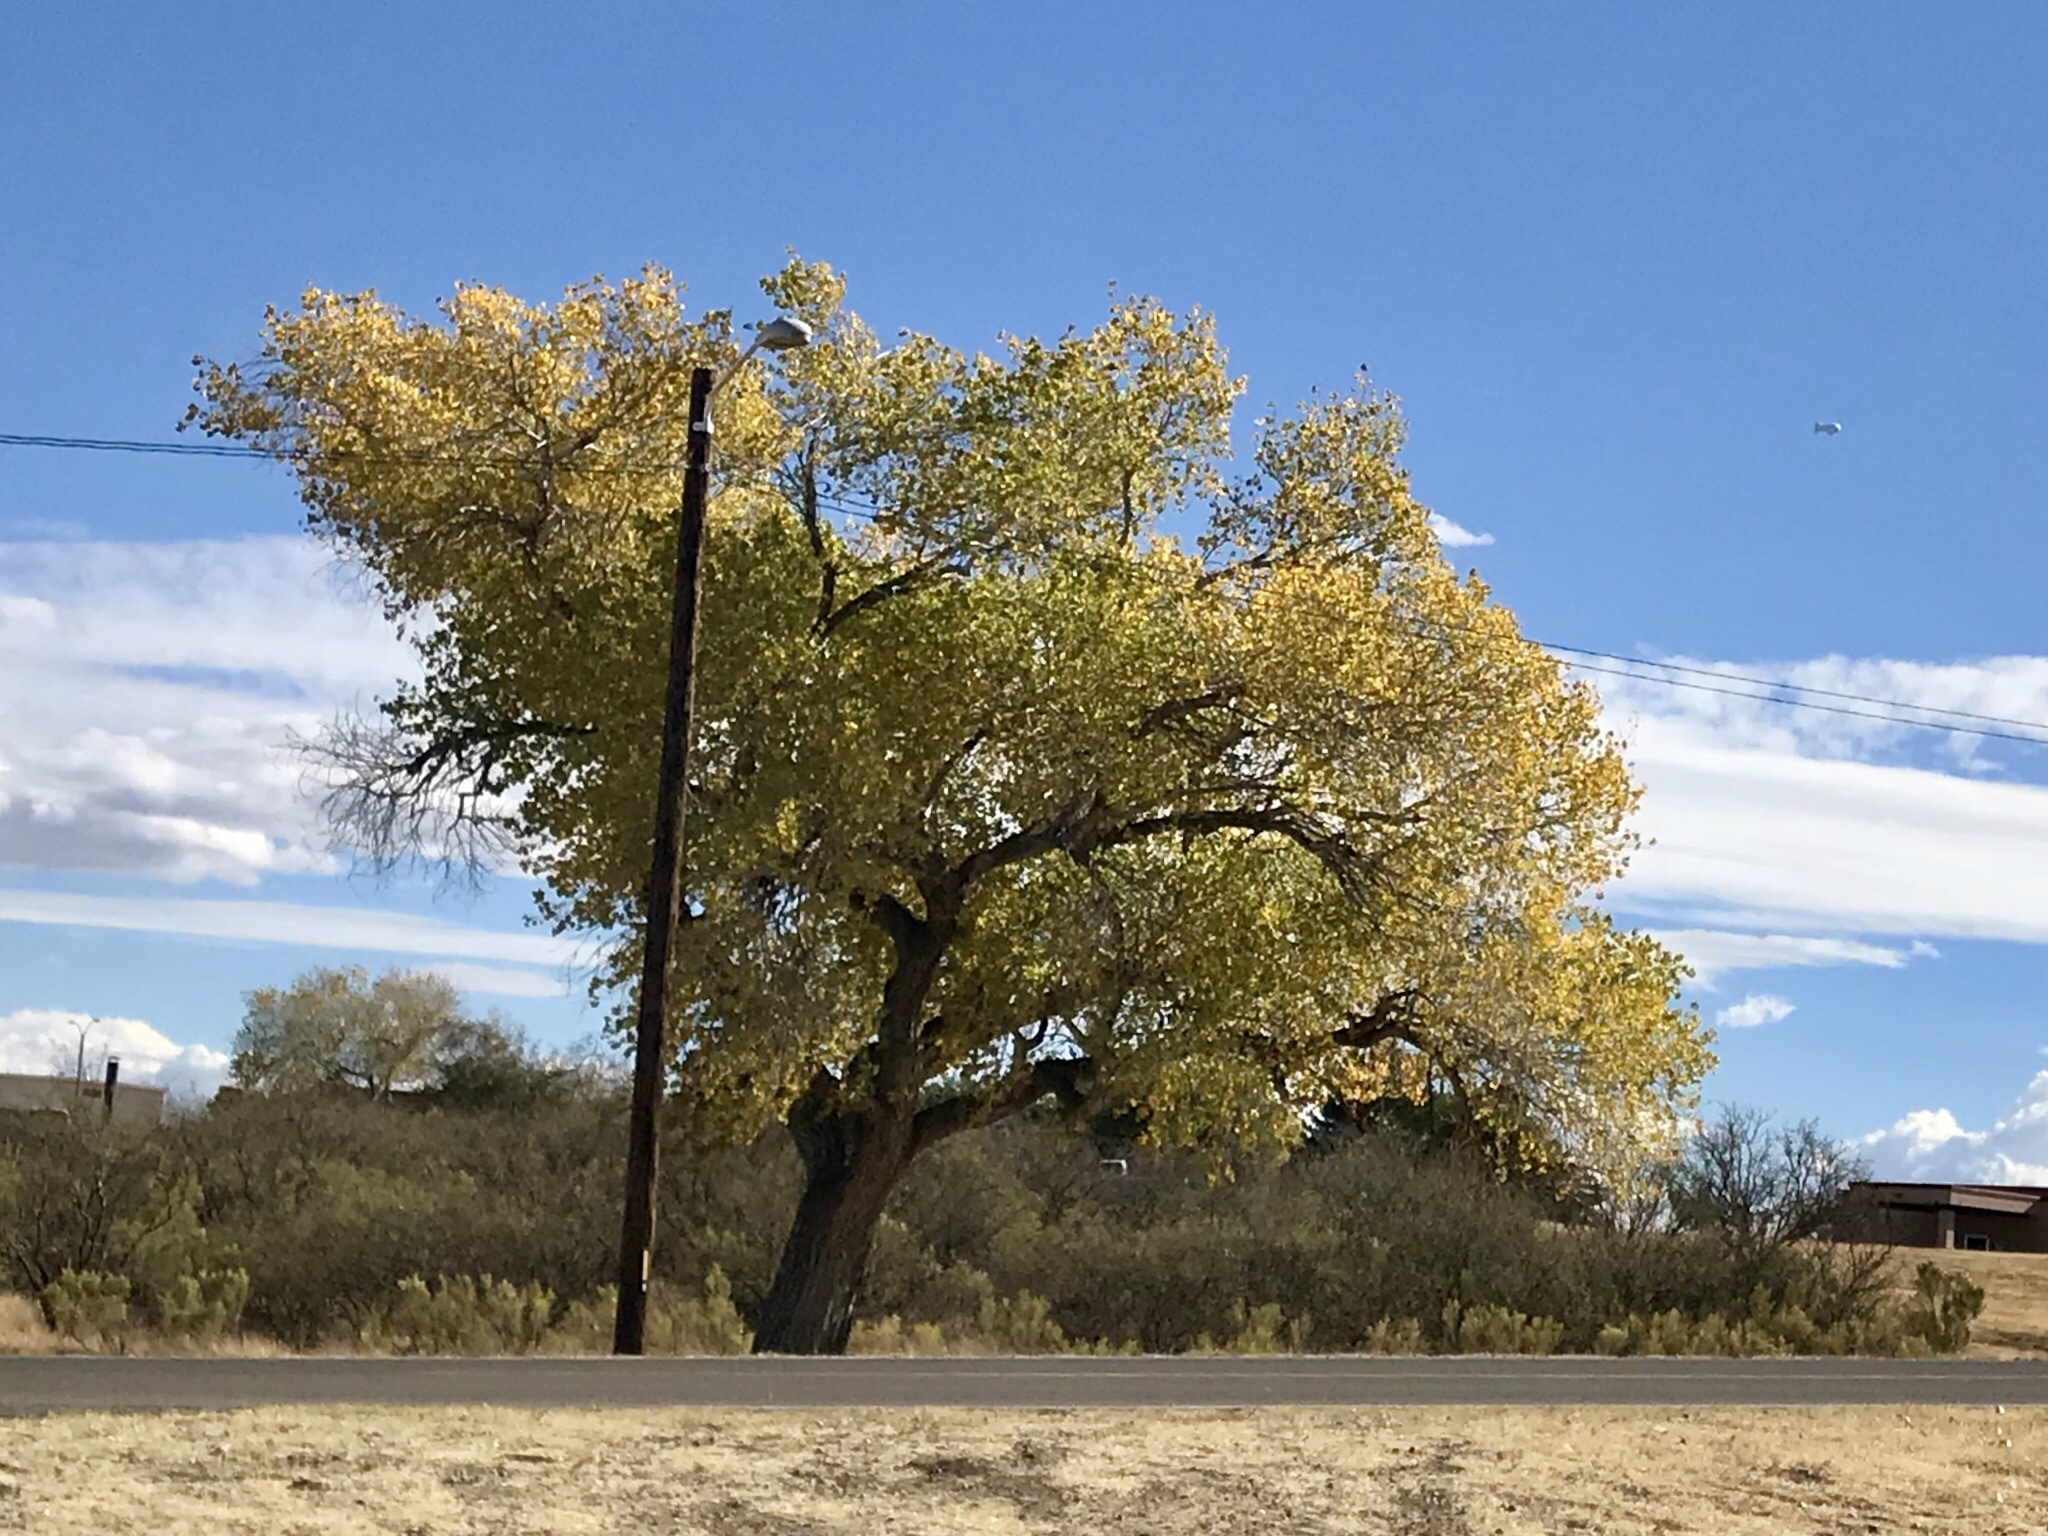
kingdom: Plantae
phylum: Tracheophyta
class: Magnoliopsida
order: Malpighiales
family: Salicaceae
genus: Populus
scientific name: Populus fremontii
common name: Fremont's cottonwood
